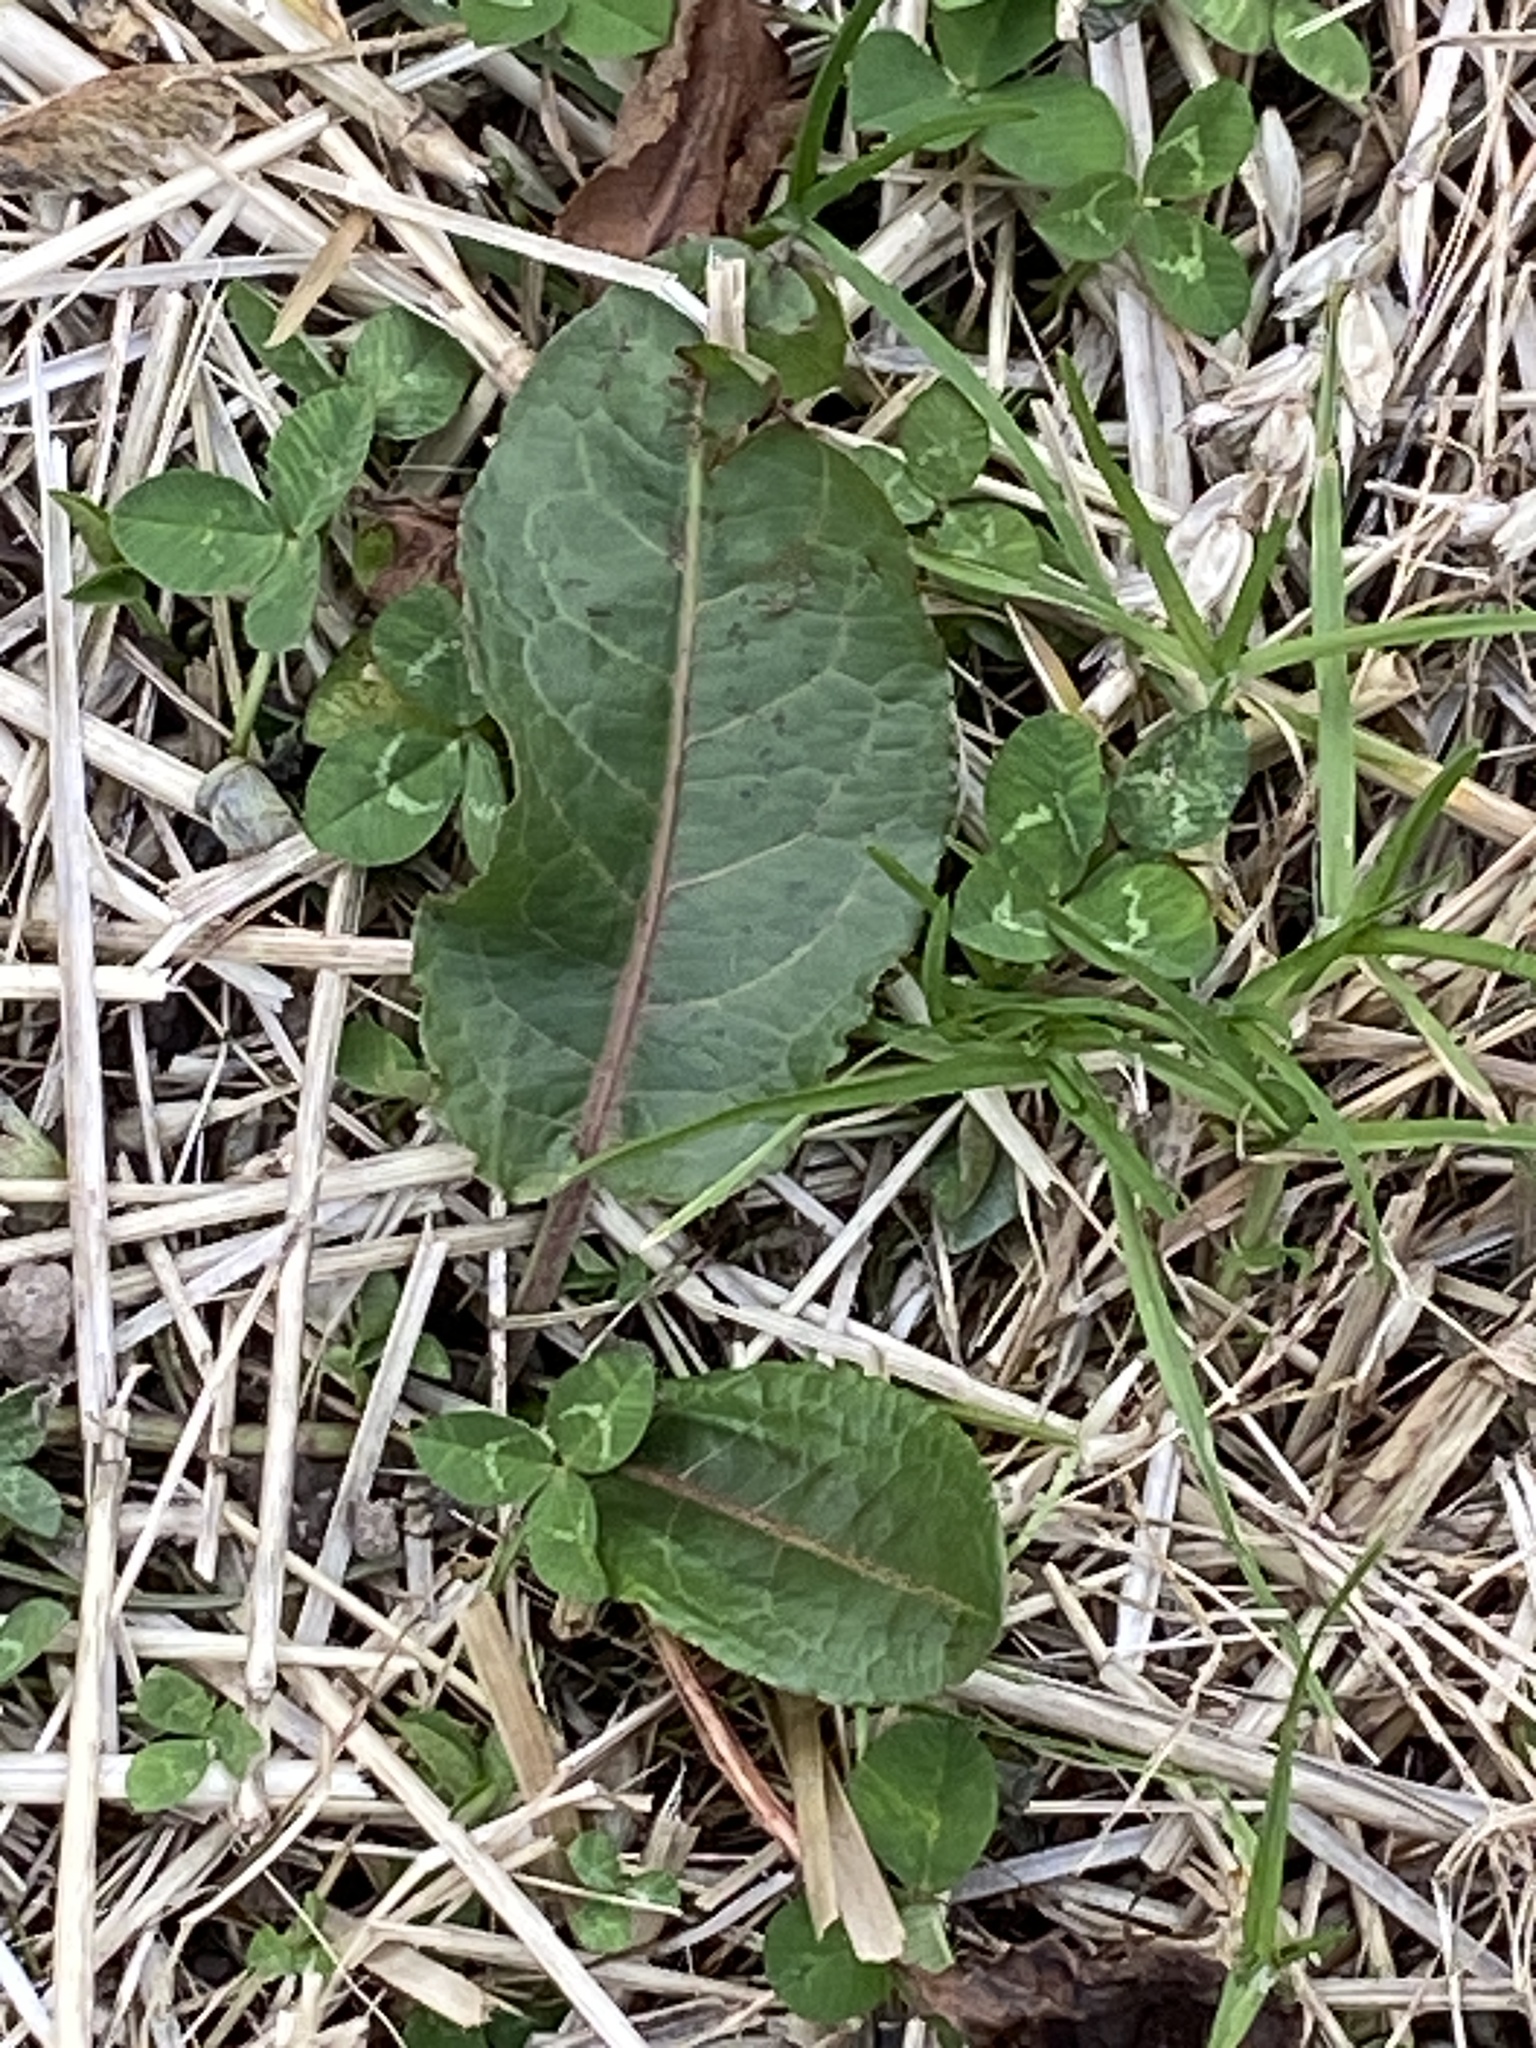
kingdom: Plantae
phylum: Tracheophyta
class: Magnoliopsida
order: Caryophyllales
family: Polygonaceae
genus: Rumex
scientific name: Rumex obtusifolius
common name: Bitter dock
